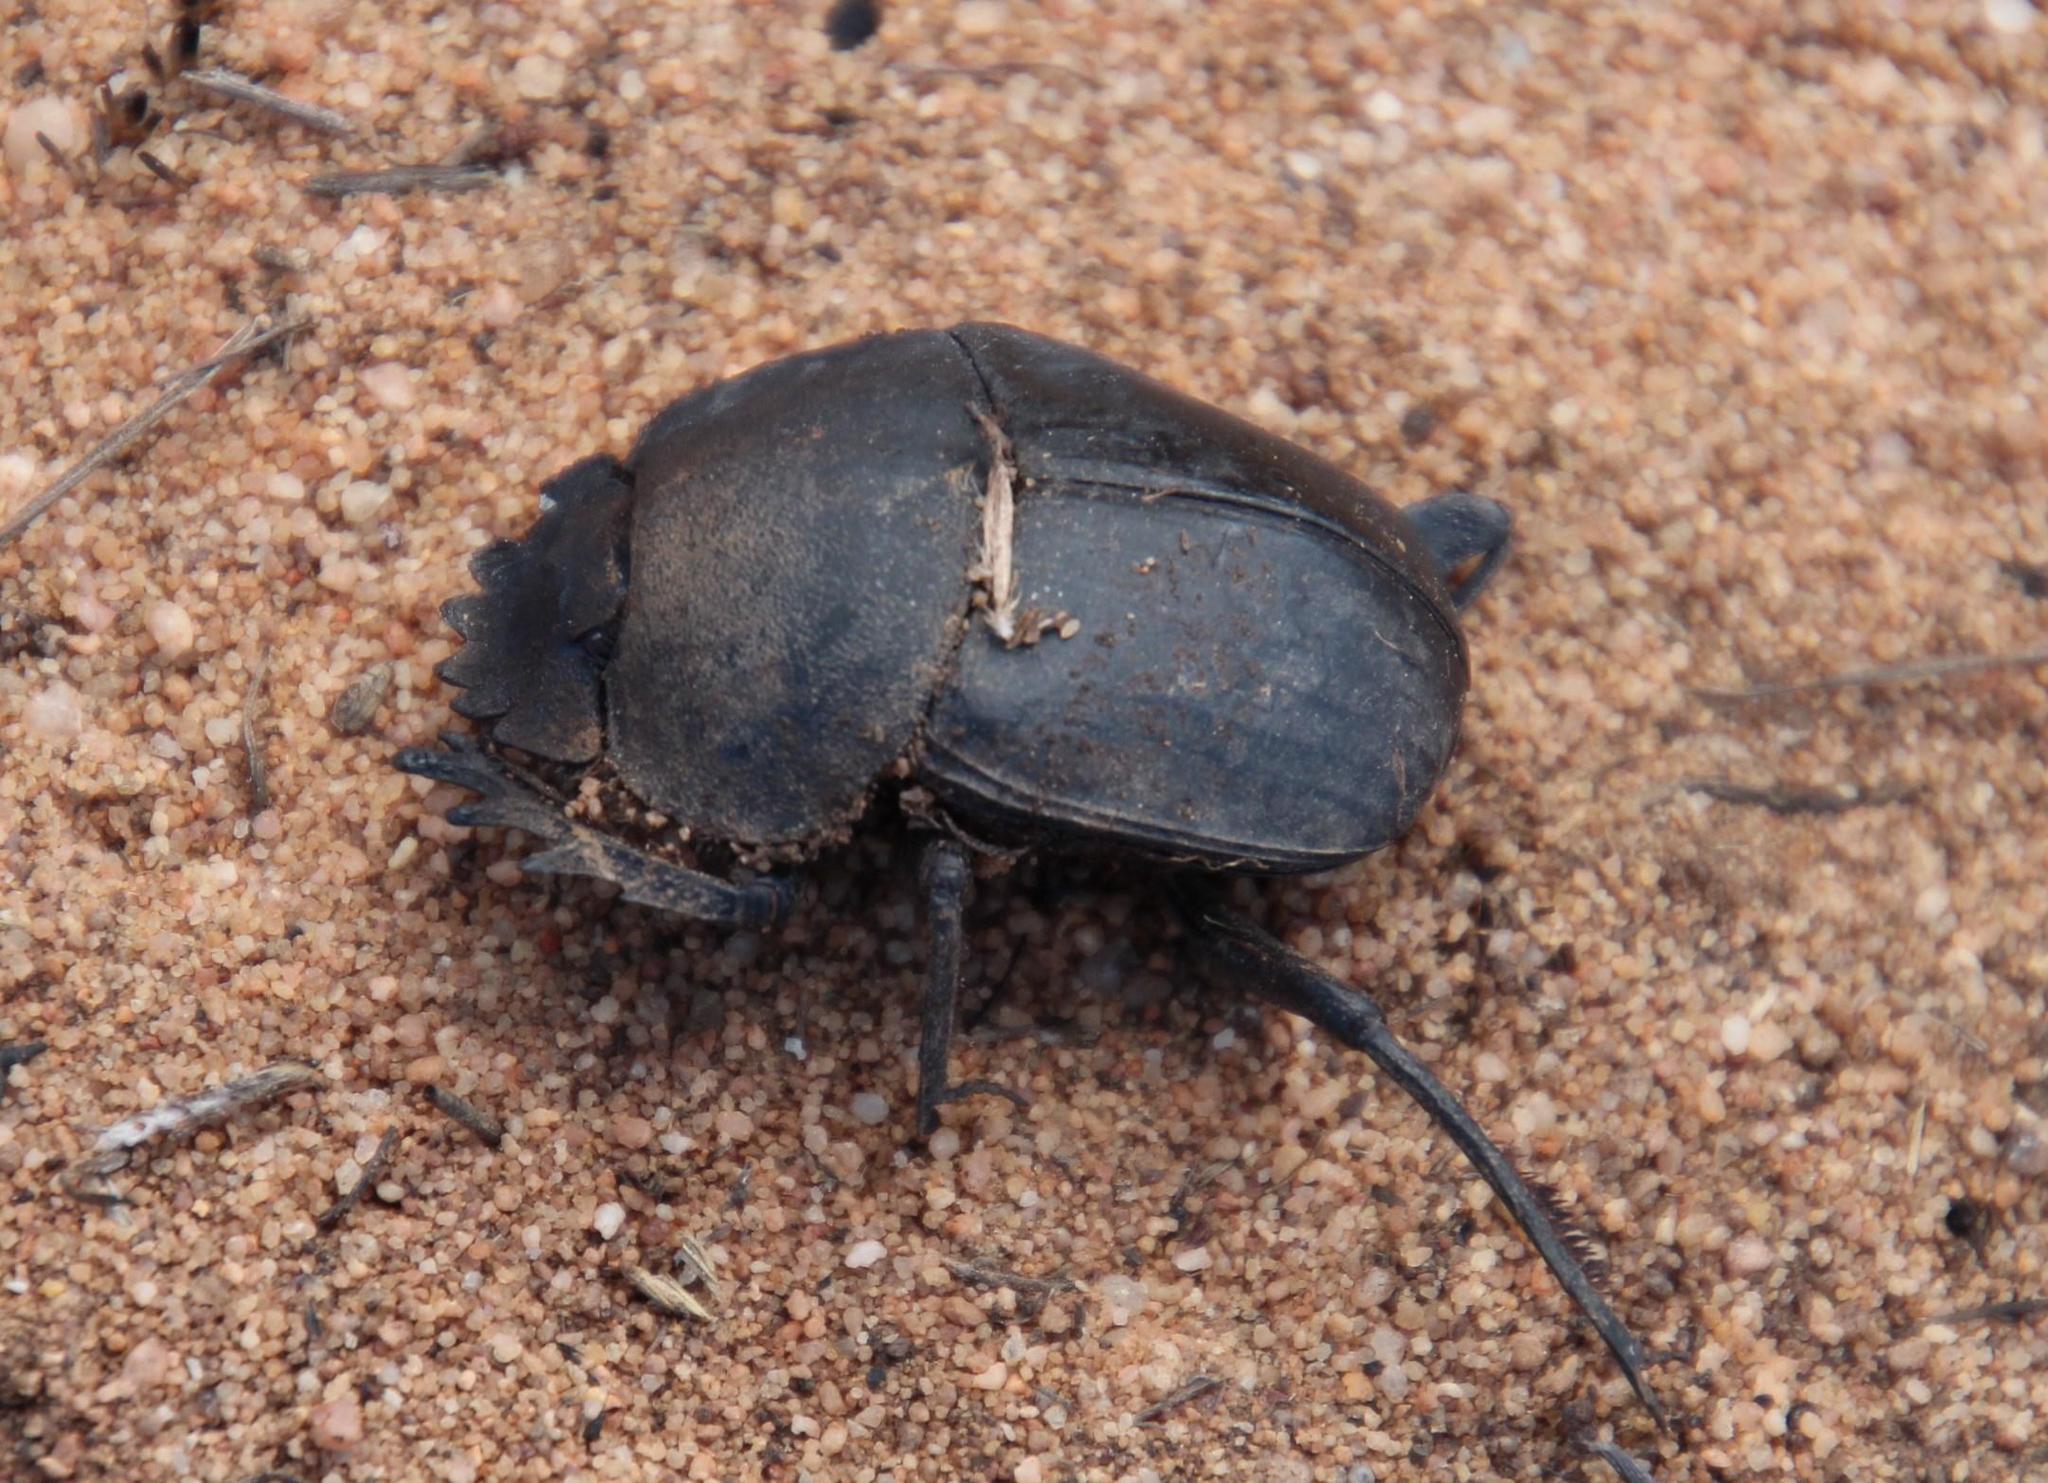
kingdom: Animalia
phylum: Arthropoda
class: Insecta
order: Coleoptera
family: Scarabaeidae
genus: Scarabaeus
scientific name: Scarabaeus suri
